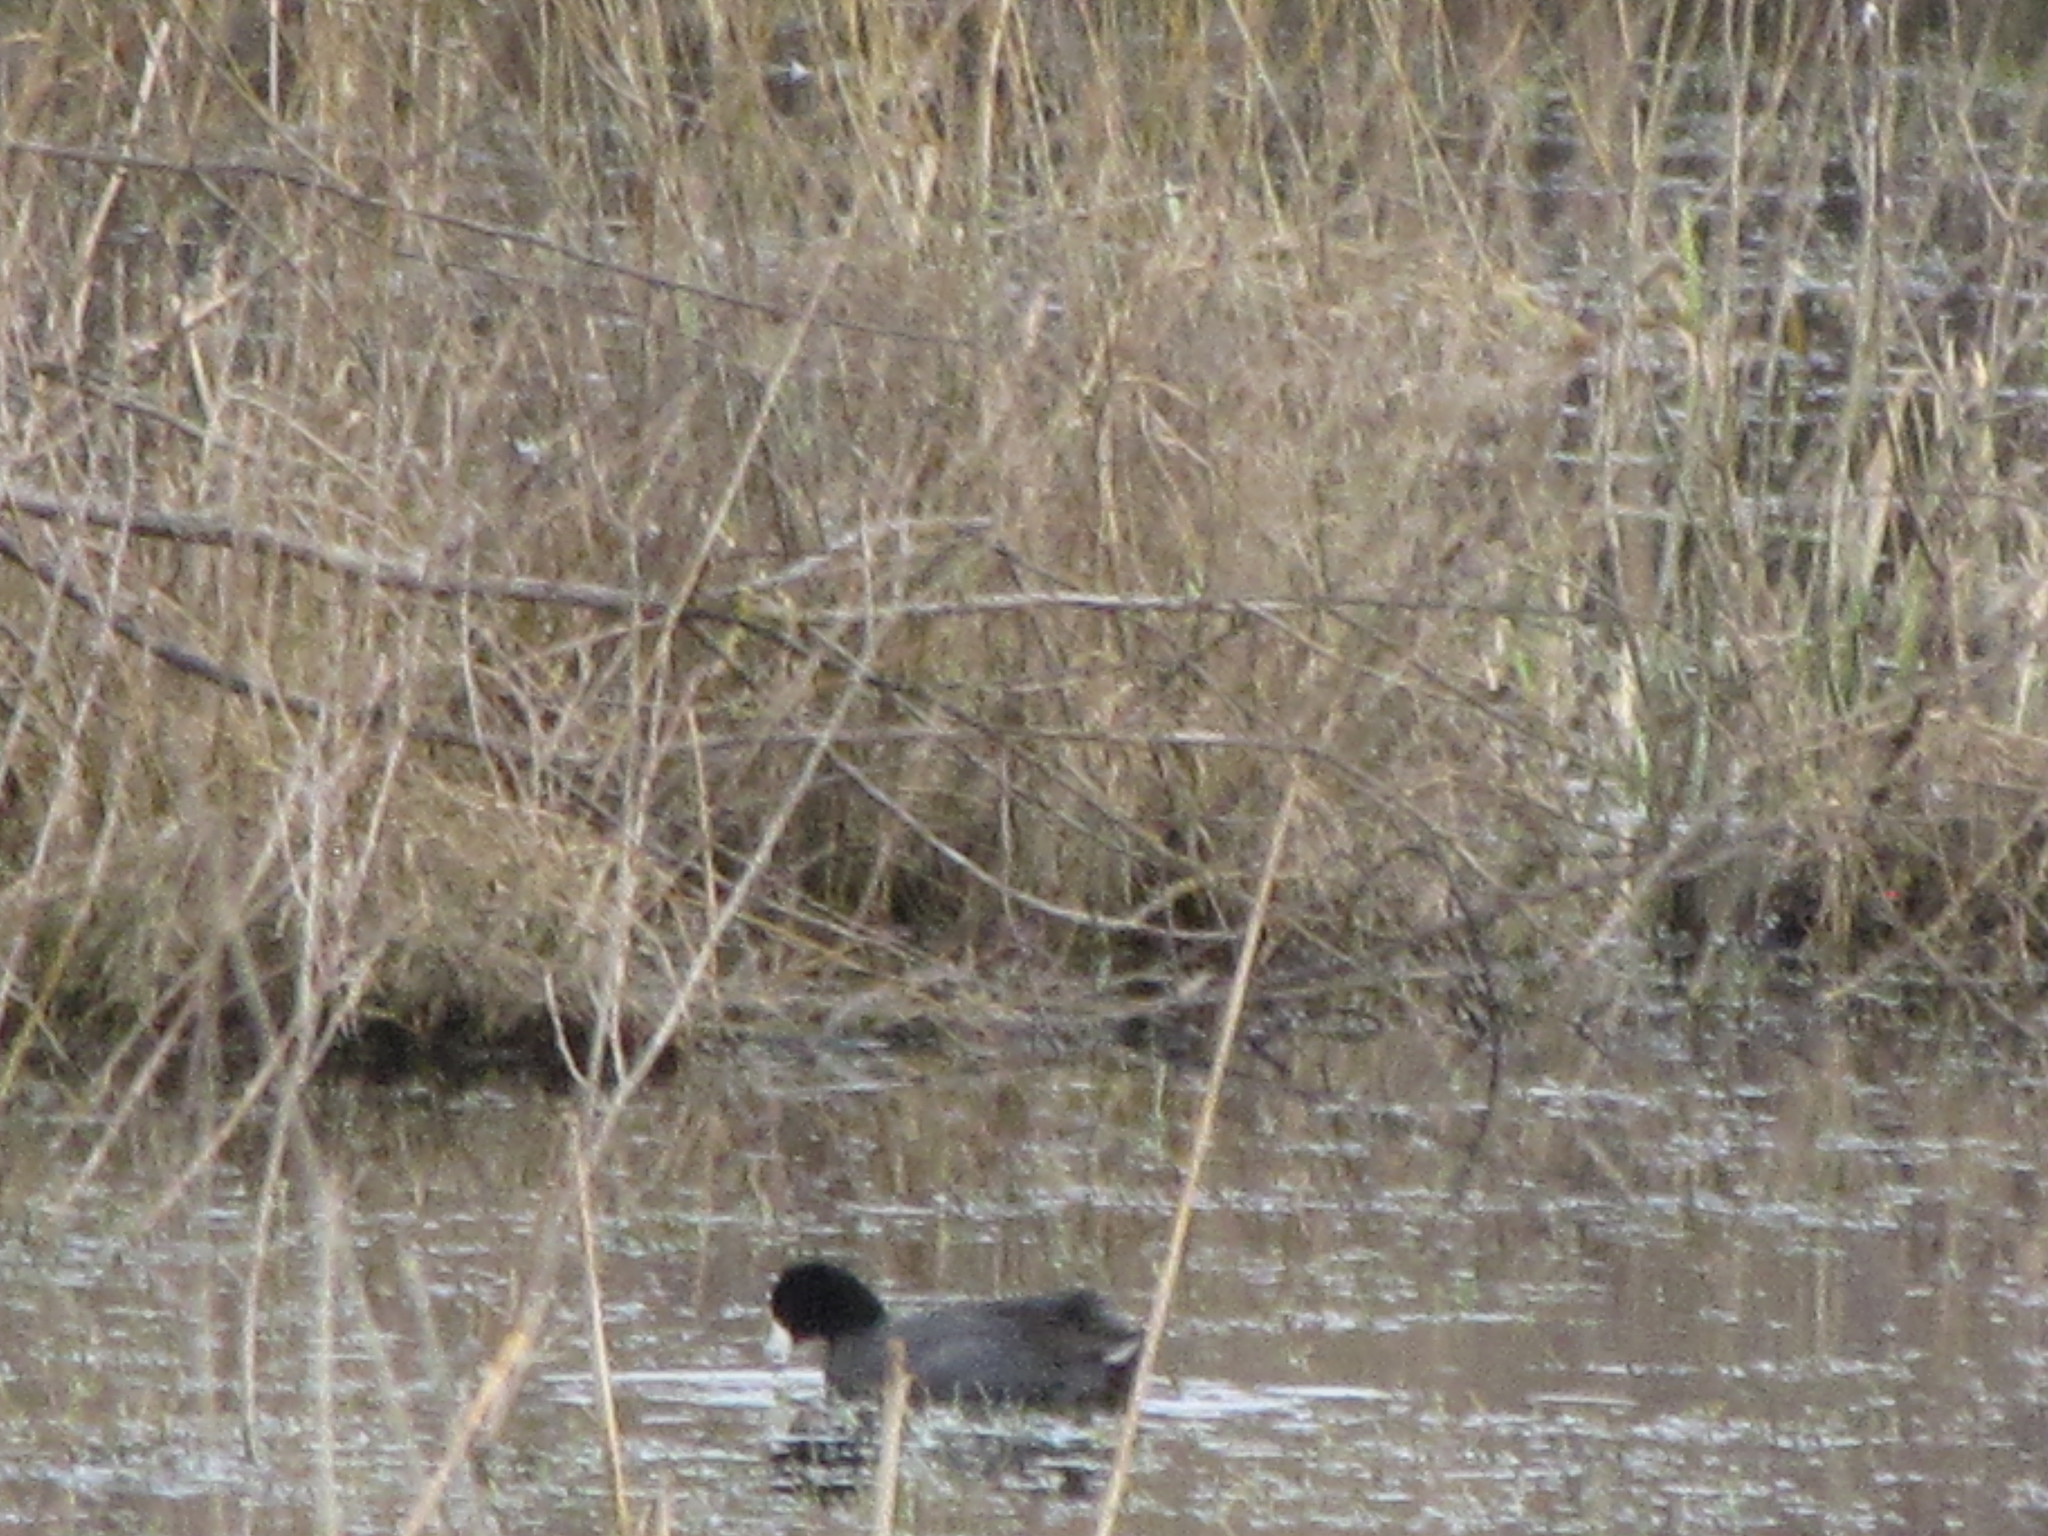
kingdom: Animalia
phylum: Chordata
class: Aves
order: Gruiformes
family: Rallidae
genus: Fulica
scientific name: Fulica americana
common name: American coot
